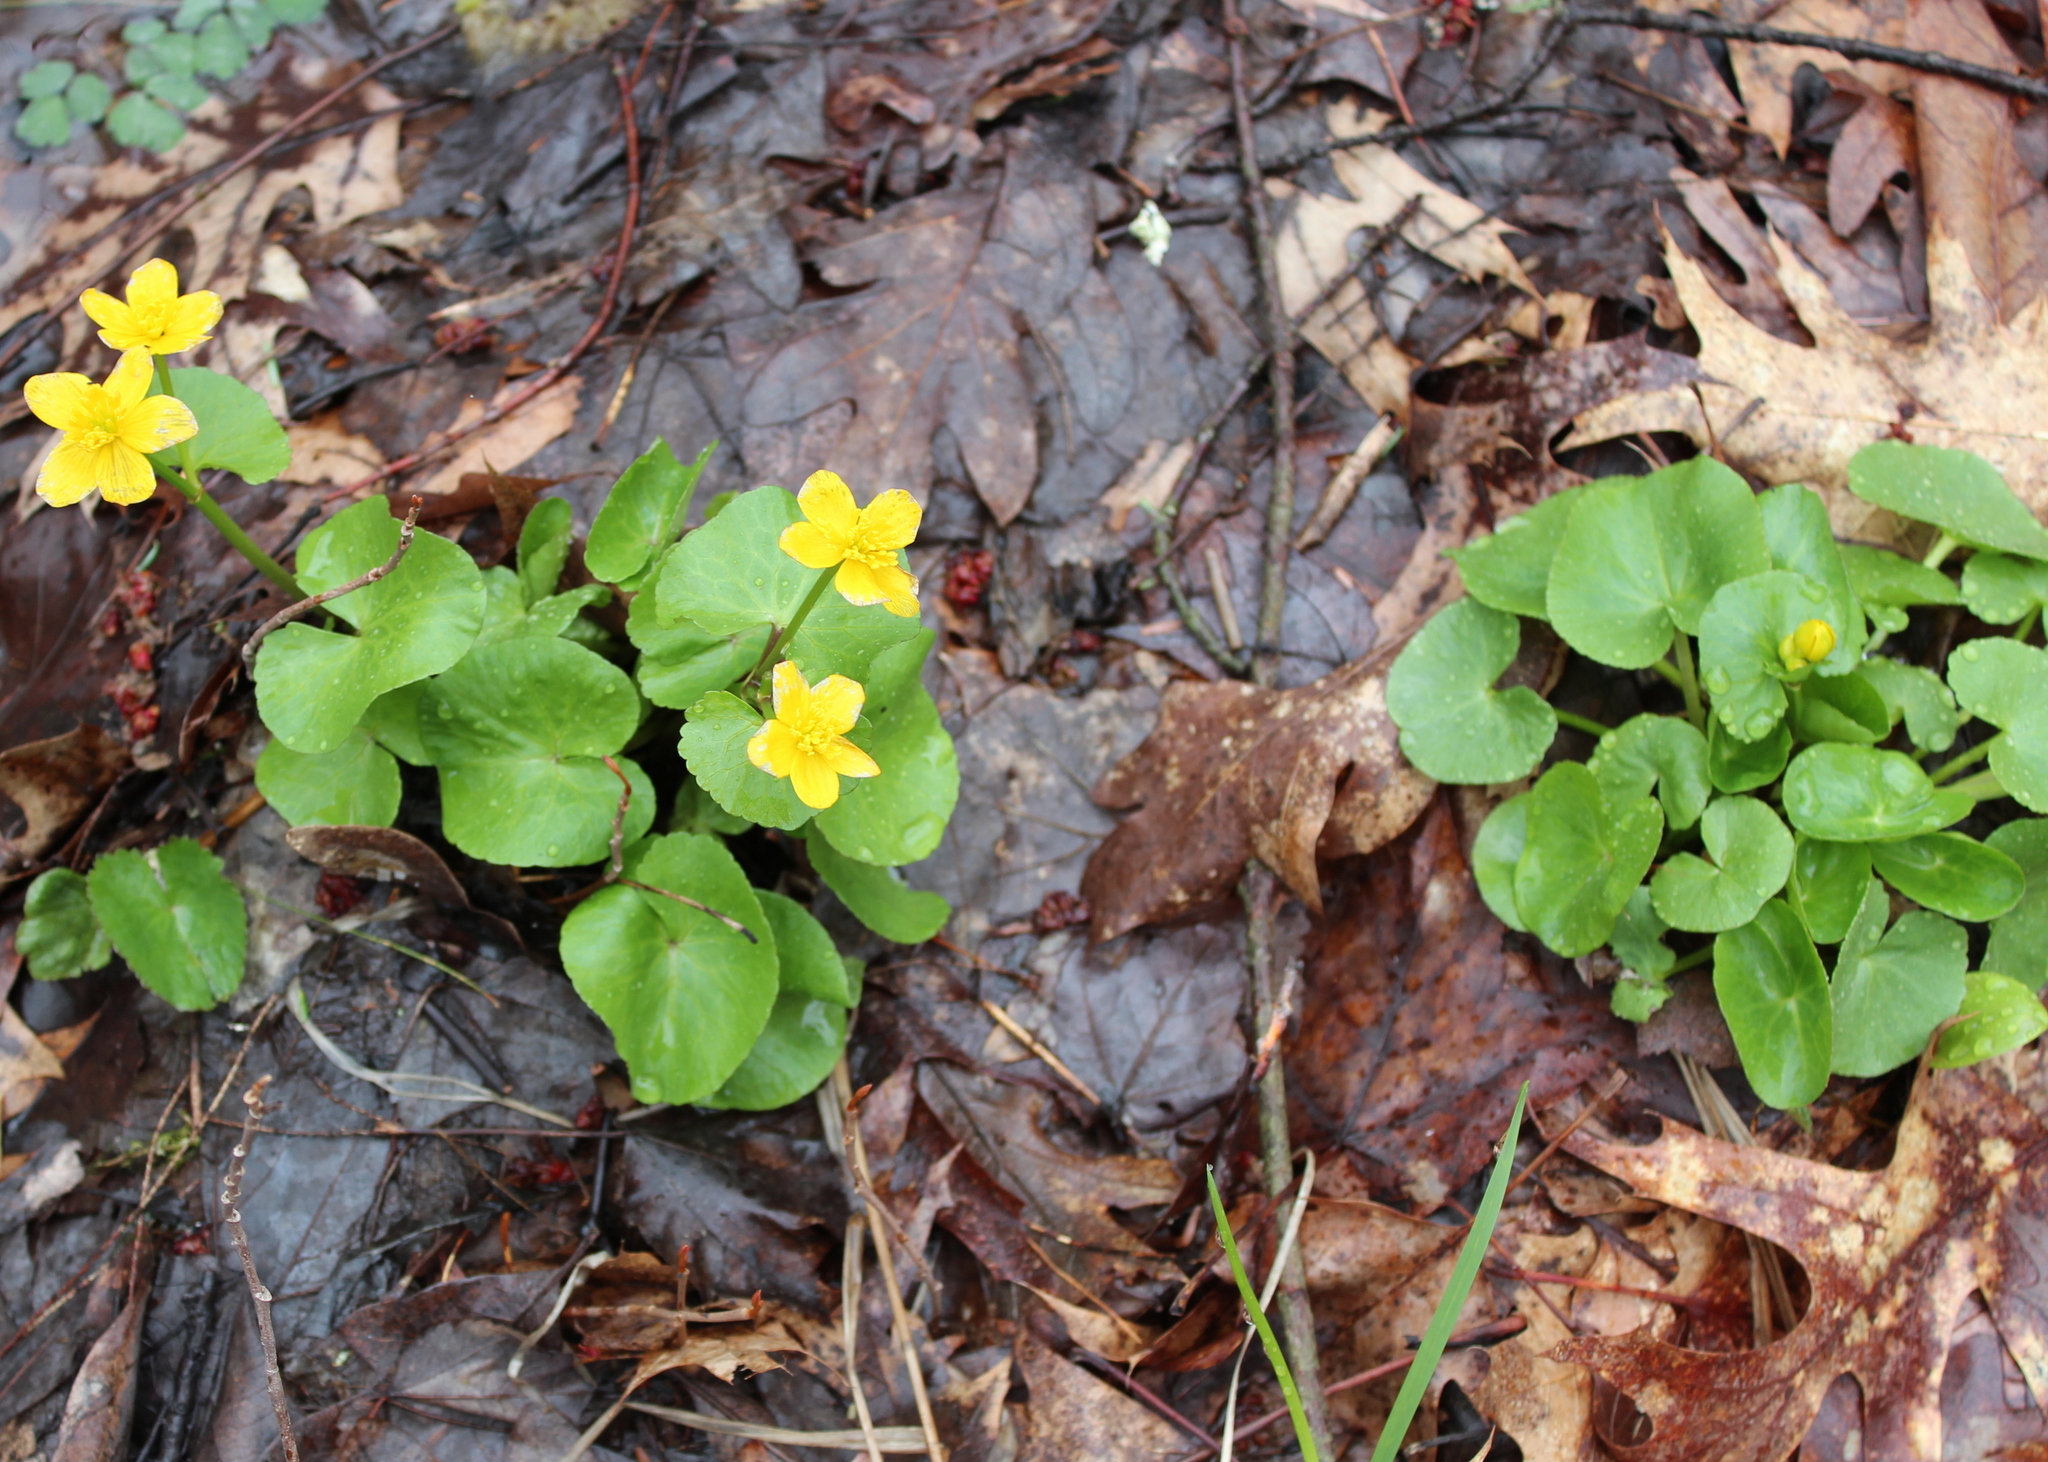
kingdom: Plantae
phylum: Tracheophyta
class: Magnoliopsida
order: Ranunculales
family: Ranunculaceae
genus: Caltha
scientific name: Caltha palustris
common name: Marsh marigold
